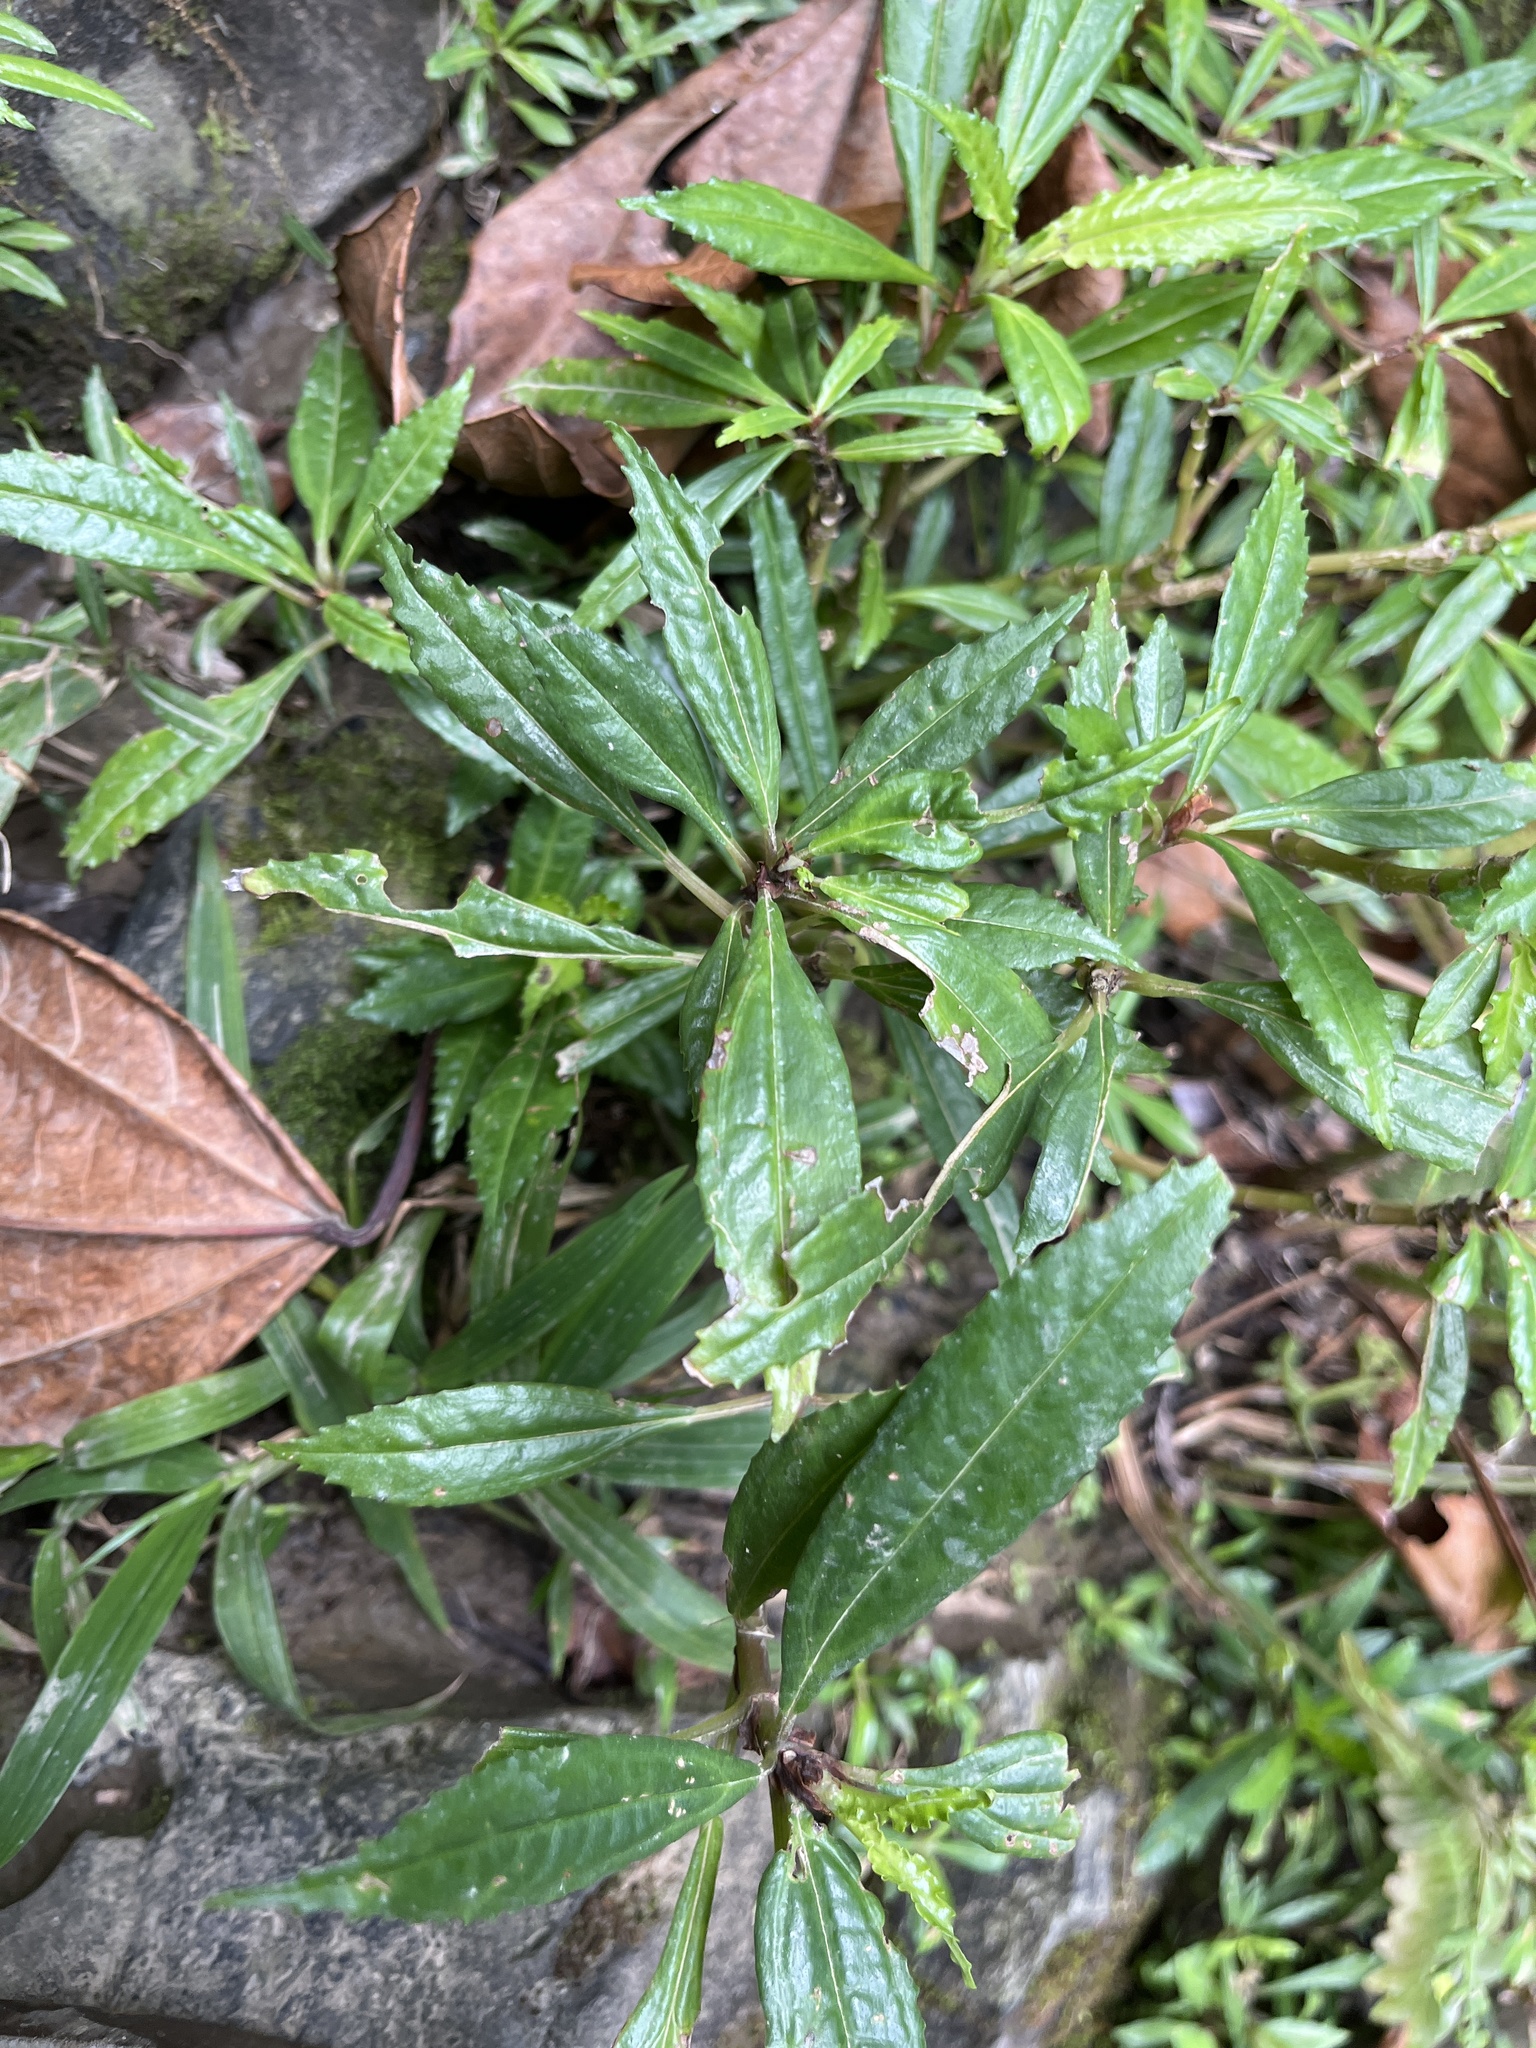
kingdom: Plantae
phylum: Tracheophyta
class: Magnoliopsida
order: Rosales
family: Urticaceae
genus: Pilea
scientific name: Pilea semidentata
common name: Cliffside clearweed
